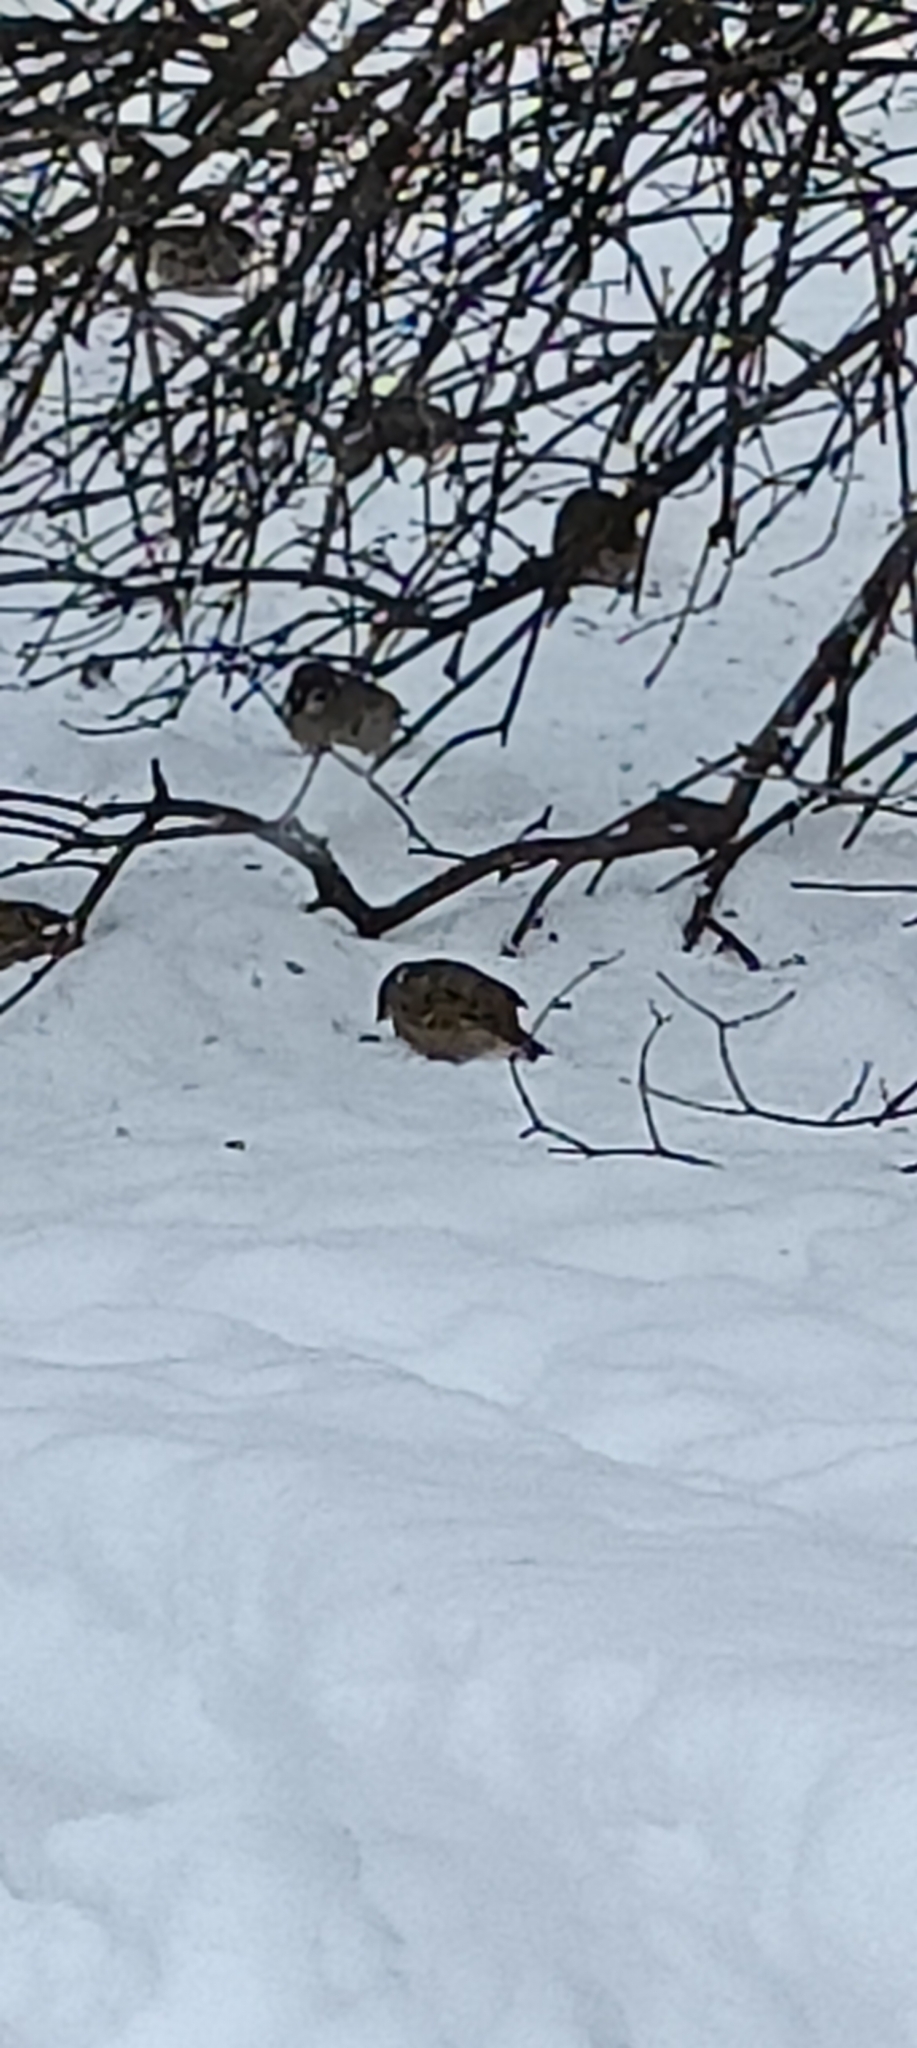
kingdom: Animalia
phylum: Chordata
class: Aves
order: Passeriformes
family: Passeridae
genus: Passer
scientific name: Passer montanus
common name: Eurasian tree sparrow
